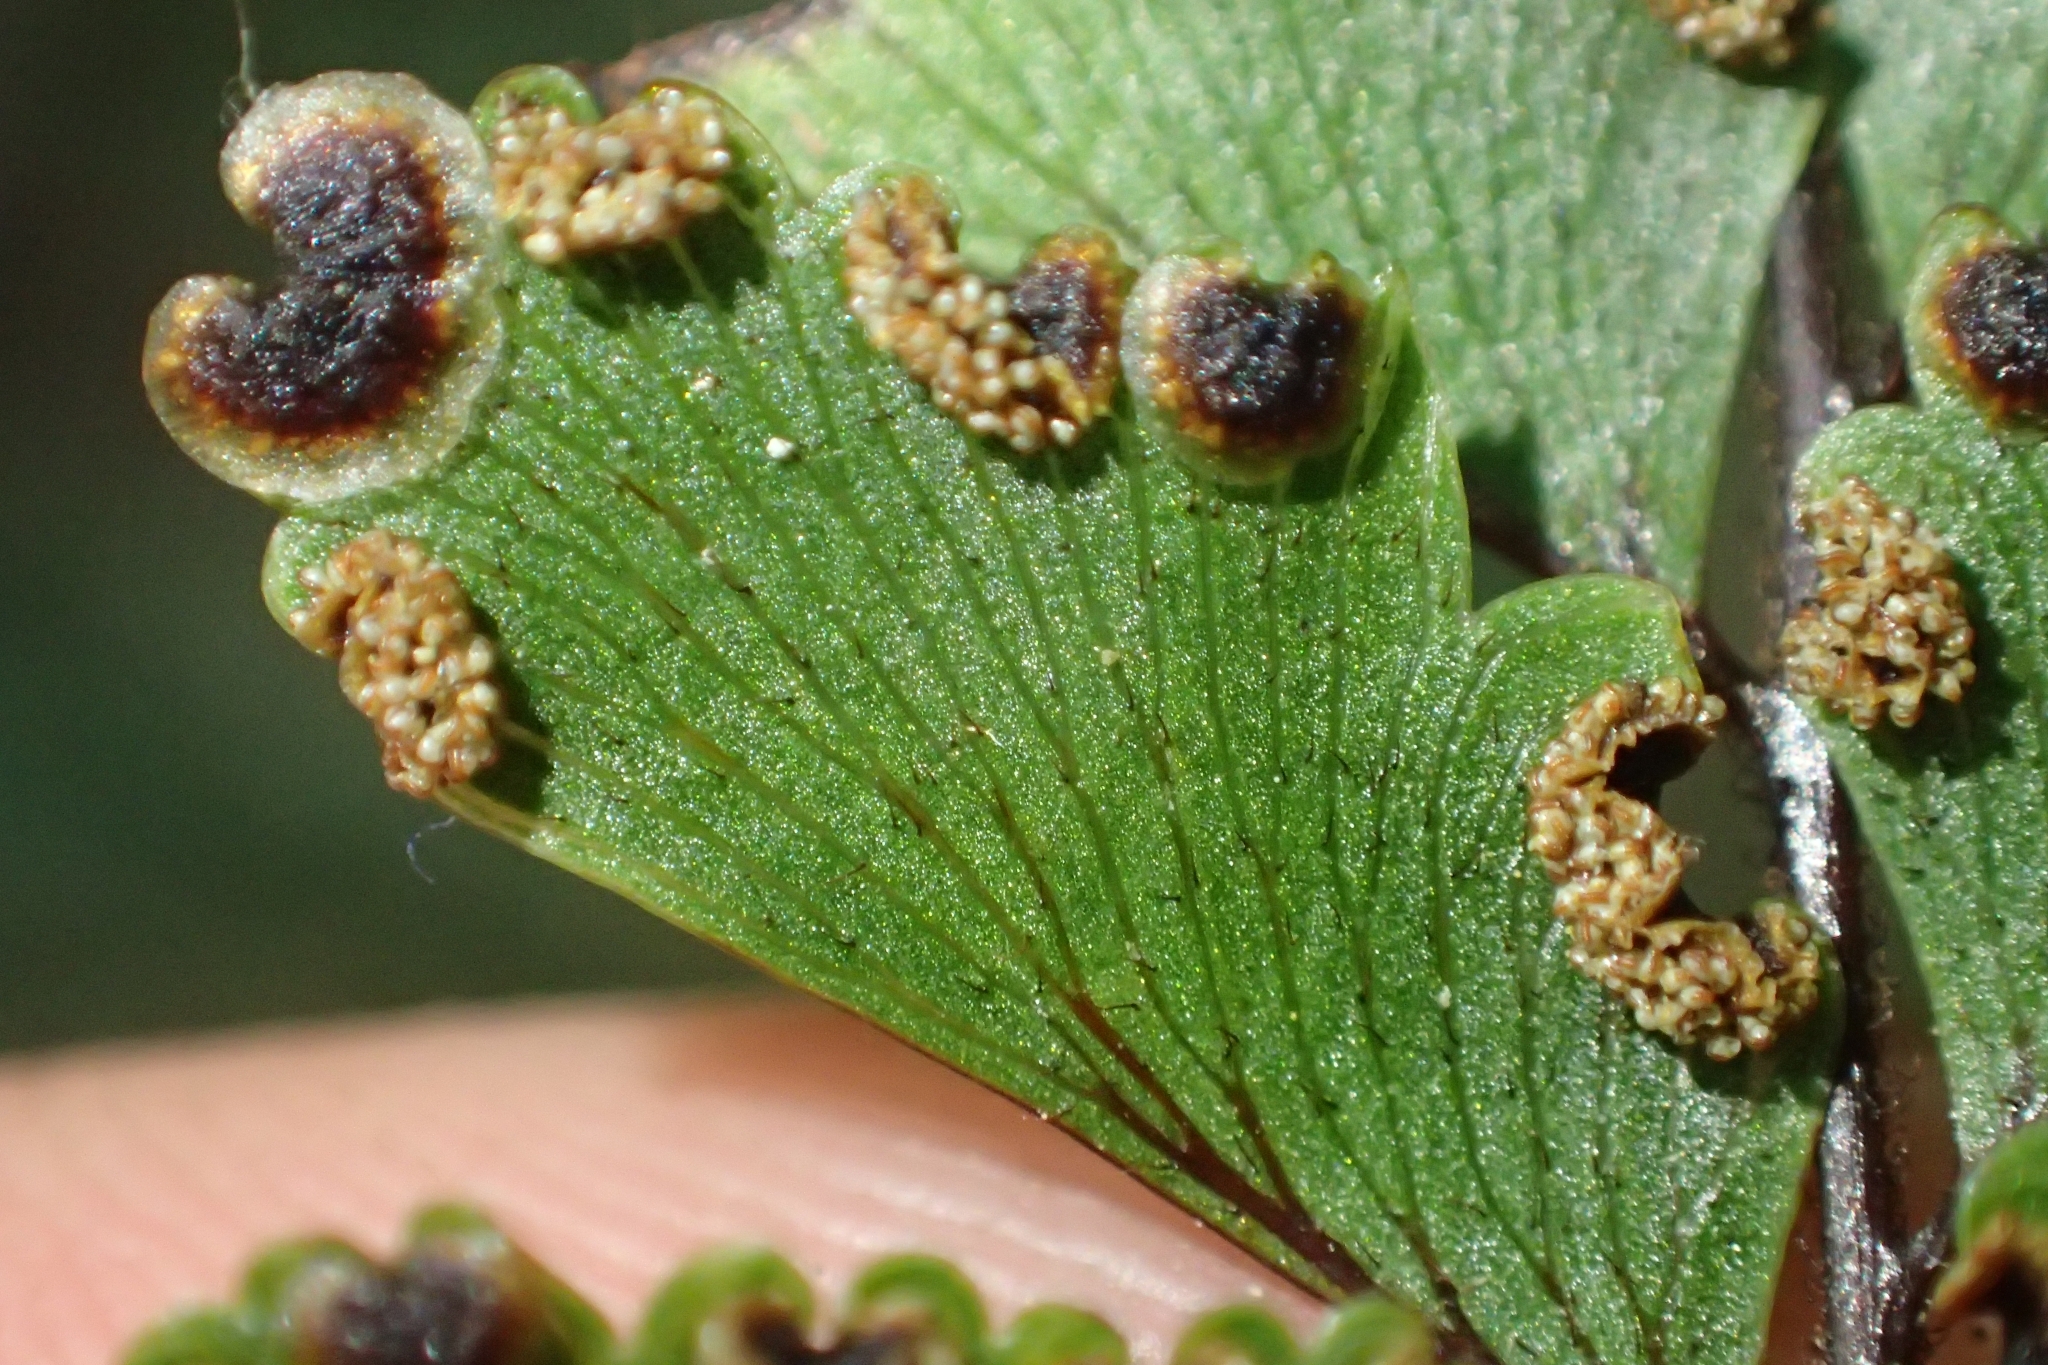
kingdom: Plantae
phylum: Tracheophyta
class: Polypodiopsida
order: Polypodiales
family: Pteridaceae
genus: Adiantum
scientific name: Adiantum fulvum
